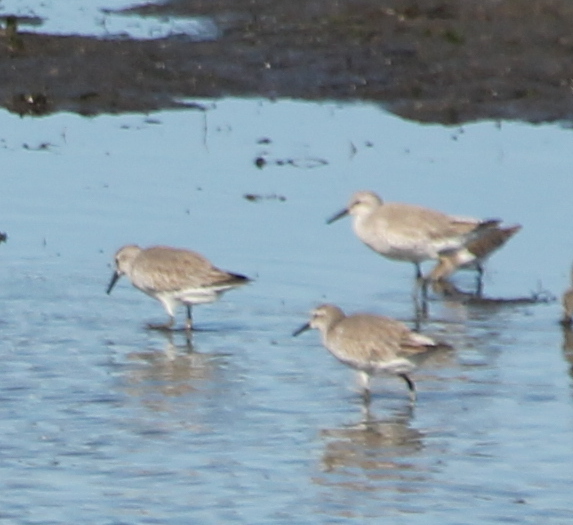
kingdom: Animalia
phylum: Chordata
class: Aves
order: Charadriiformes
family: Scolopacidae
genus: Calidris
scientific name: Calidris canutus
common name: Red knot
